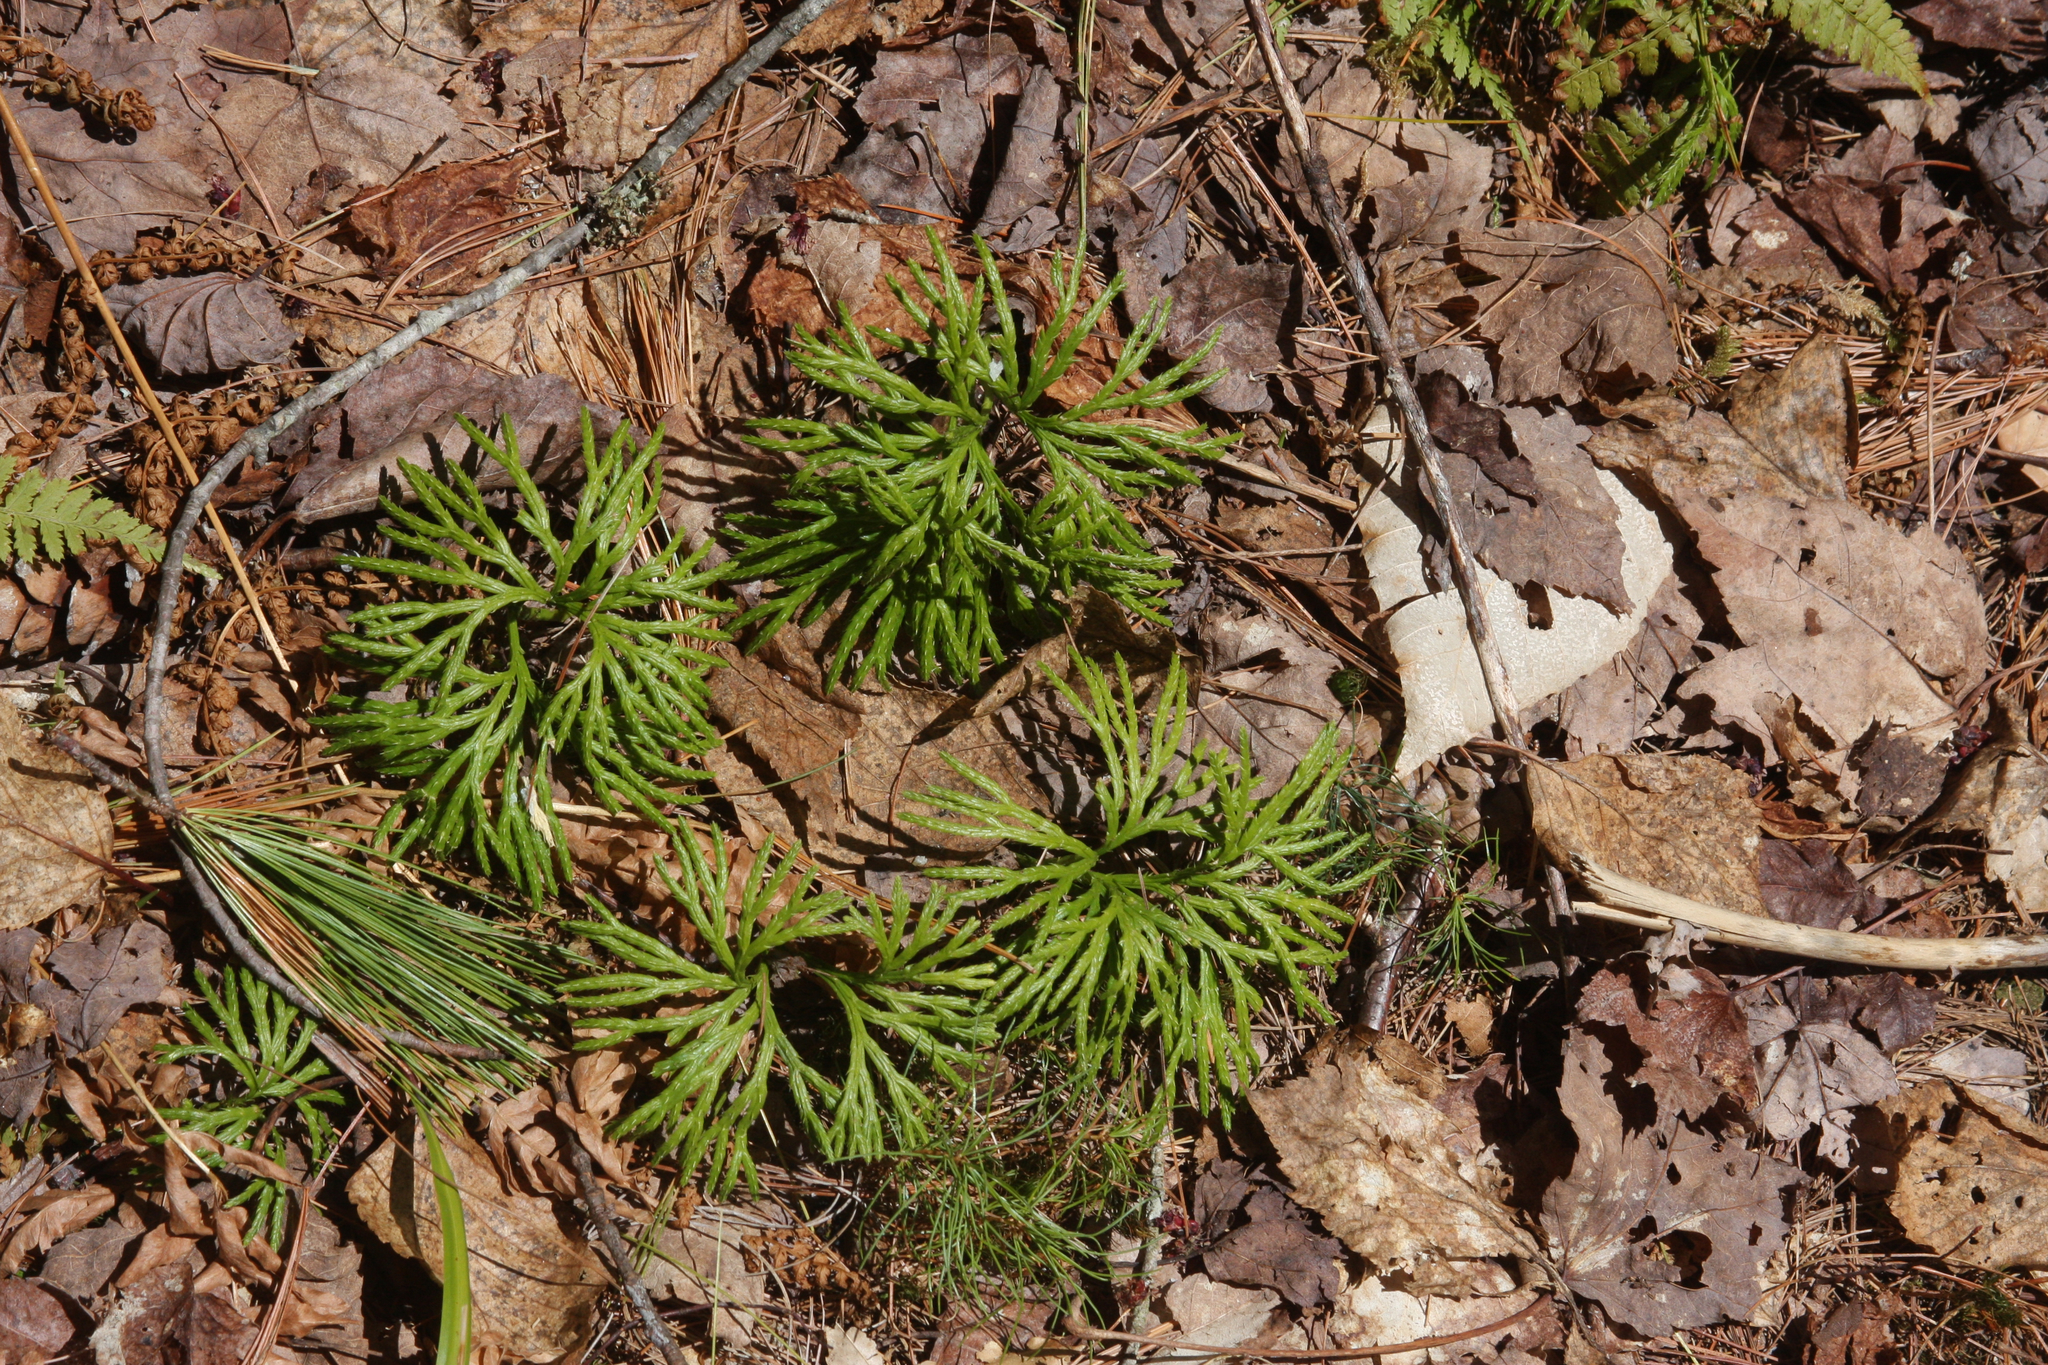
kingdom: Plantae
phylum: Tracheophyta
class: Lycopodiopsida
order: Lycopodiales
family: Lycopodiaceae
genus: Diphasiastrum
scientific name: Diphasiastrum digitatum
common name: Southern running-pine
